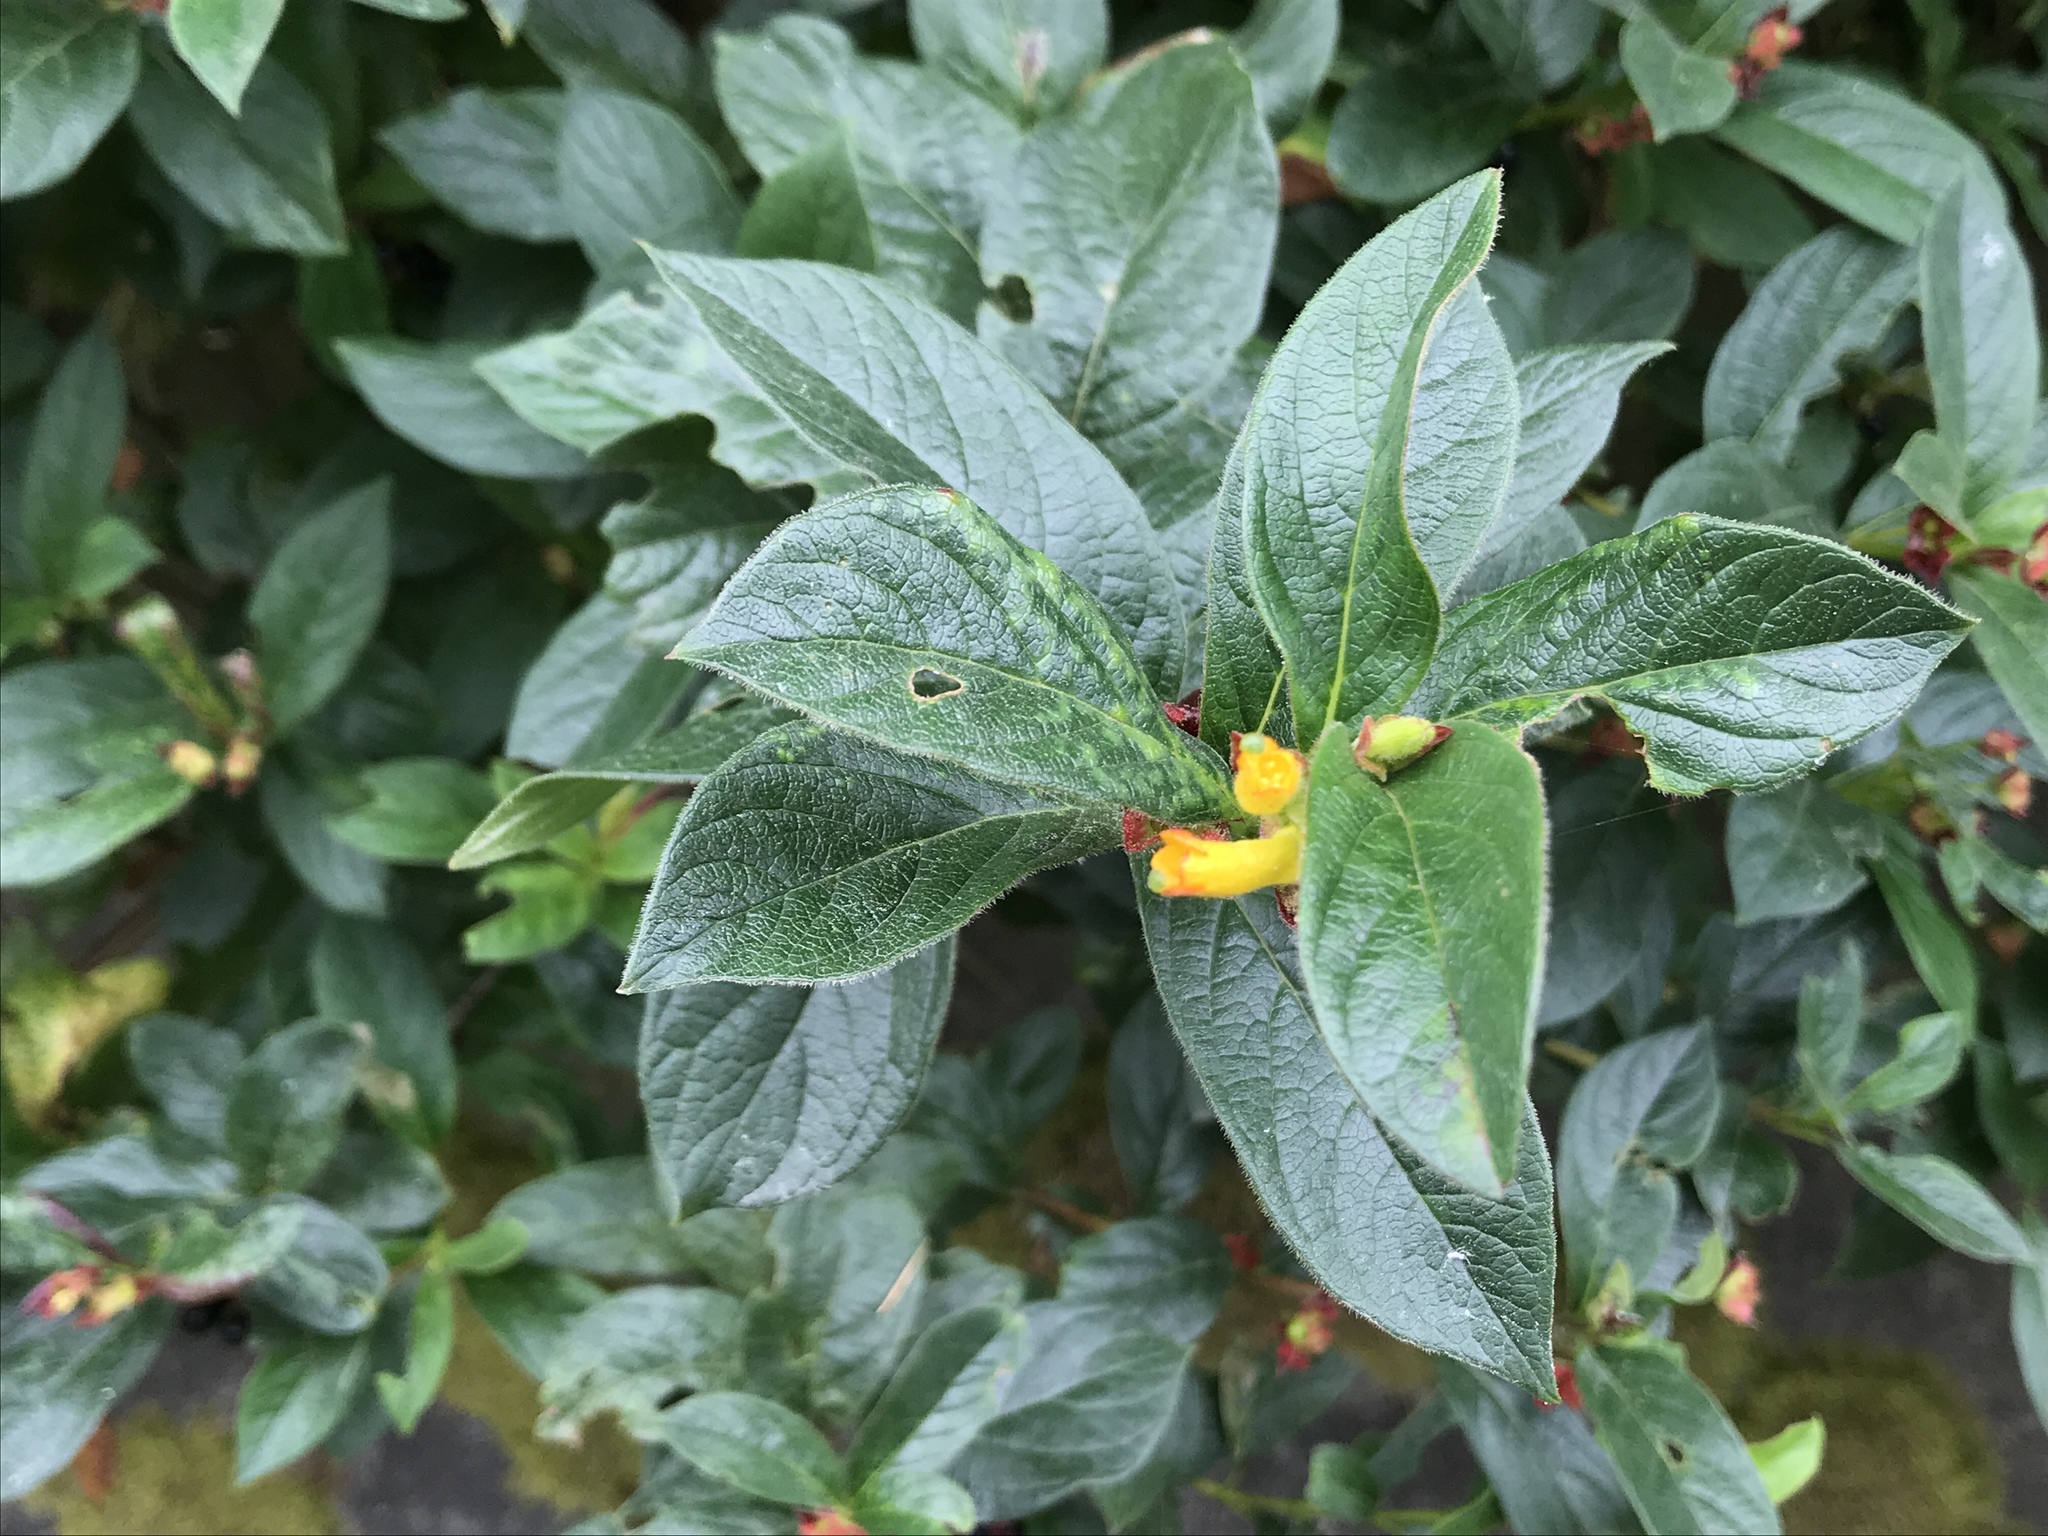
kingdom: Plantae
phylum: Tracheophyta
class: Magnoliopsida
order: Dipsacales
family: Caprifoliaceae
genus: Lonicera
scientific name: Lonicera involucrata
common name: Californian honeysuckle
